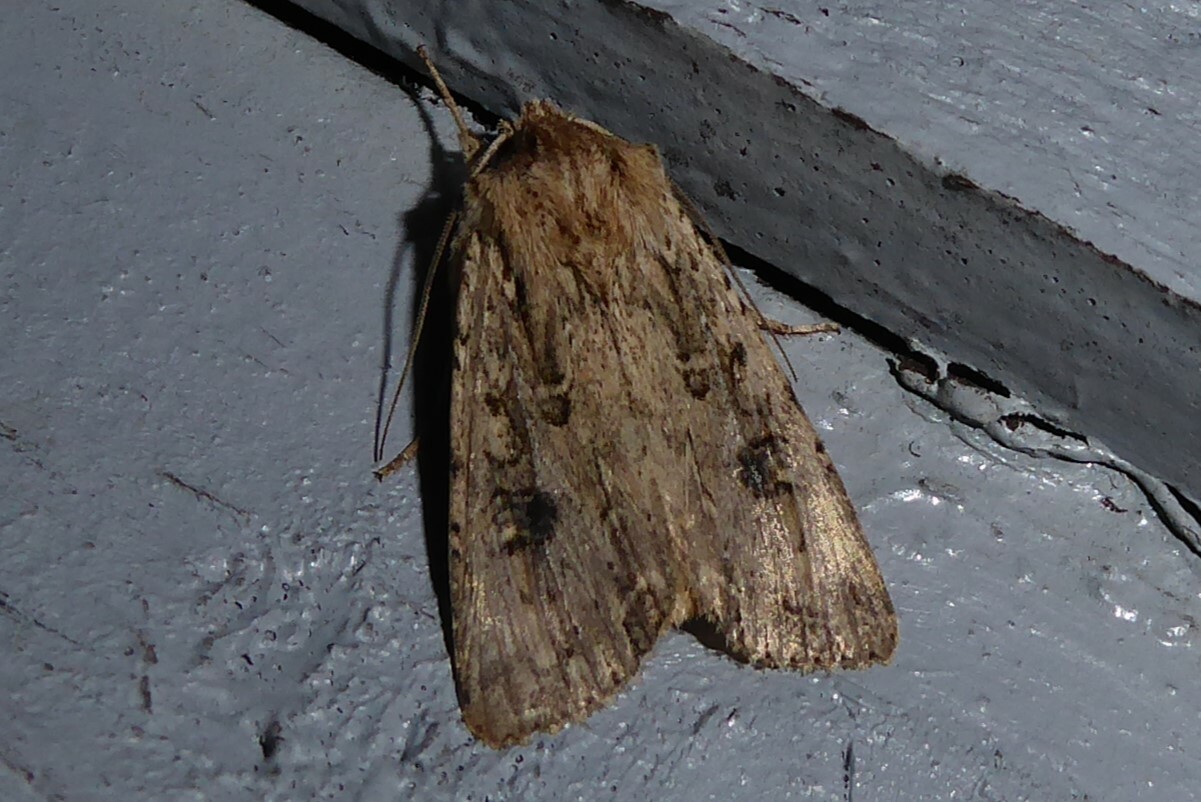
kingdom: Animalia
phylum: Arthropoda
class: Insecta
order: Lepidoptera
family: Noctuidae
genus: Ichneutica
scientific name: Ichneutica lignana
